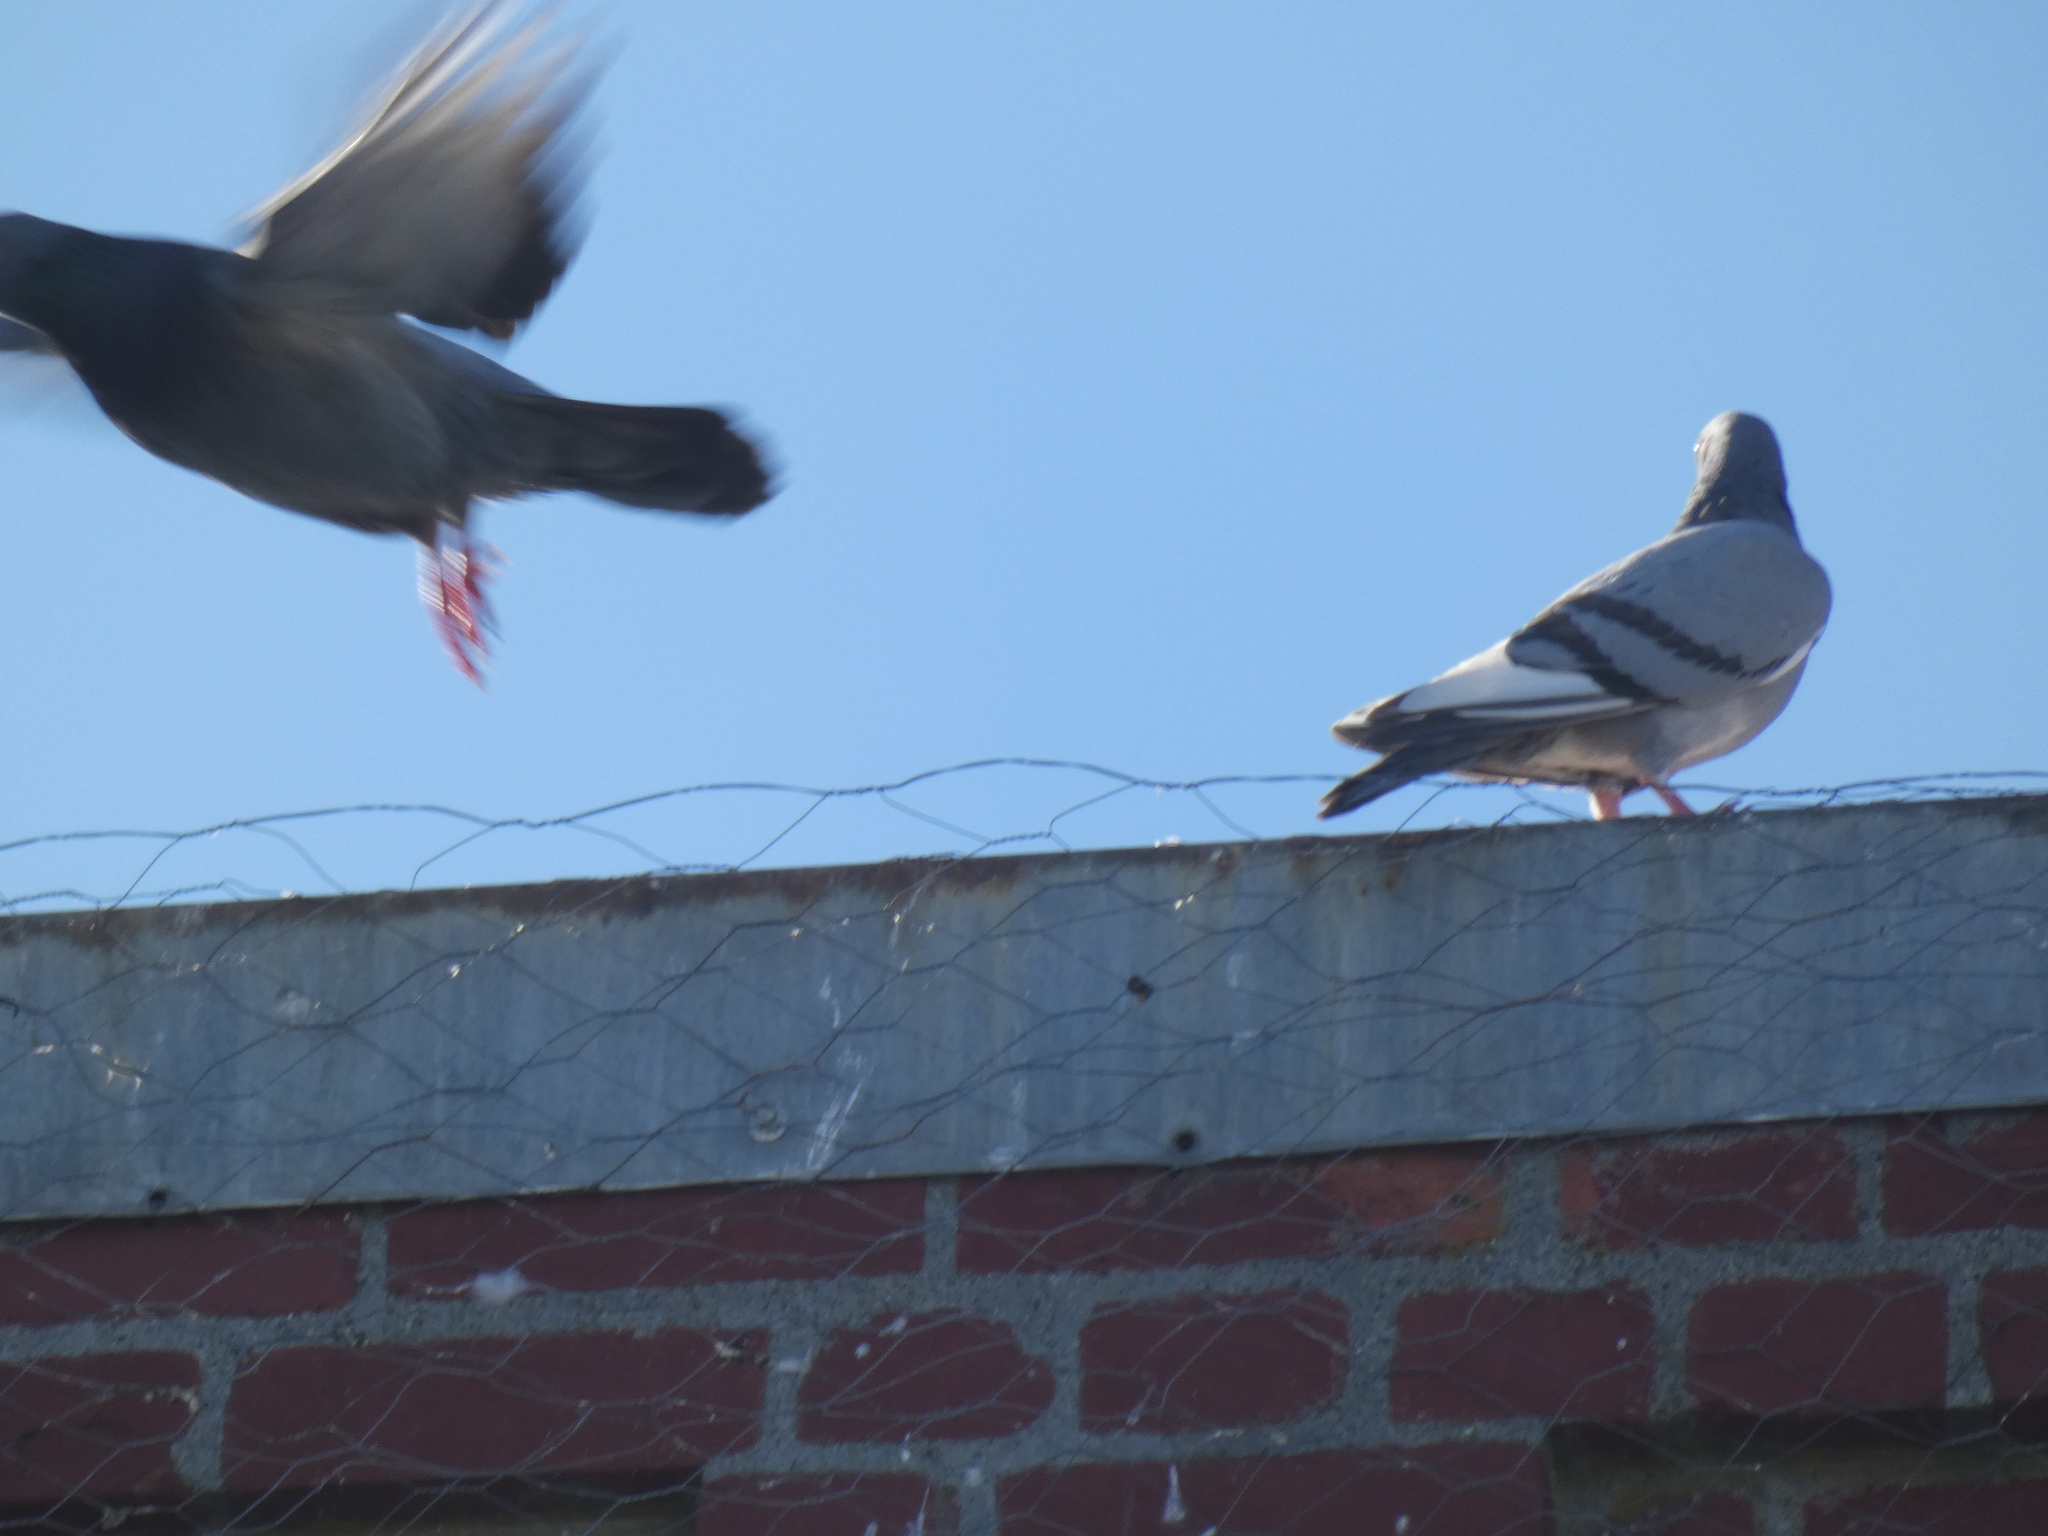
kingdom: Animalia
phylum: Chordata
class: Aves
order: Columbiformes
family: Columbidae
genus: Columba
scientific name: Columba livia
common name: Rock pigeon
